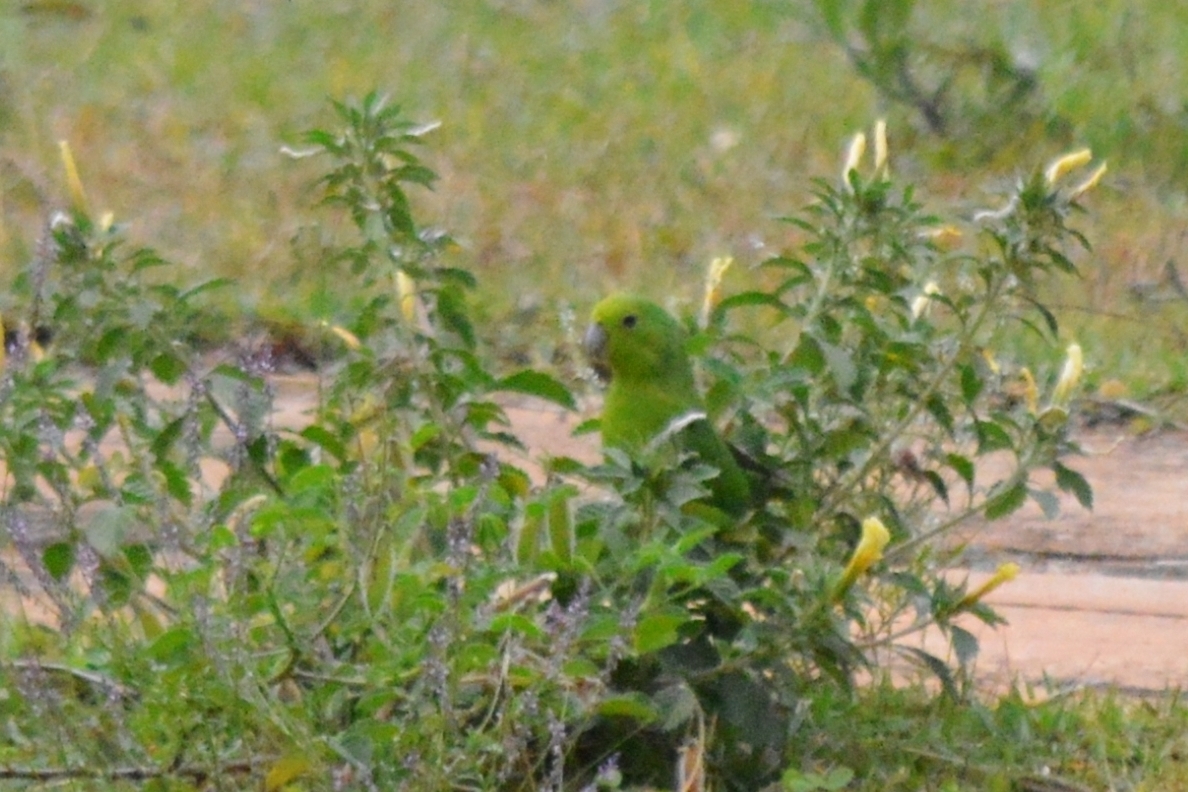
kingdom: Animalia
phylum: Chordata
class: Aves
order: Psittaciformes
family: Psittacidae
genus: Forpus
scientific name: Forpus xanthopterygius
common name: Blue-winged parrotlet
